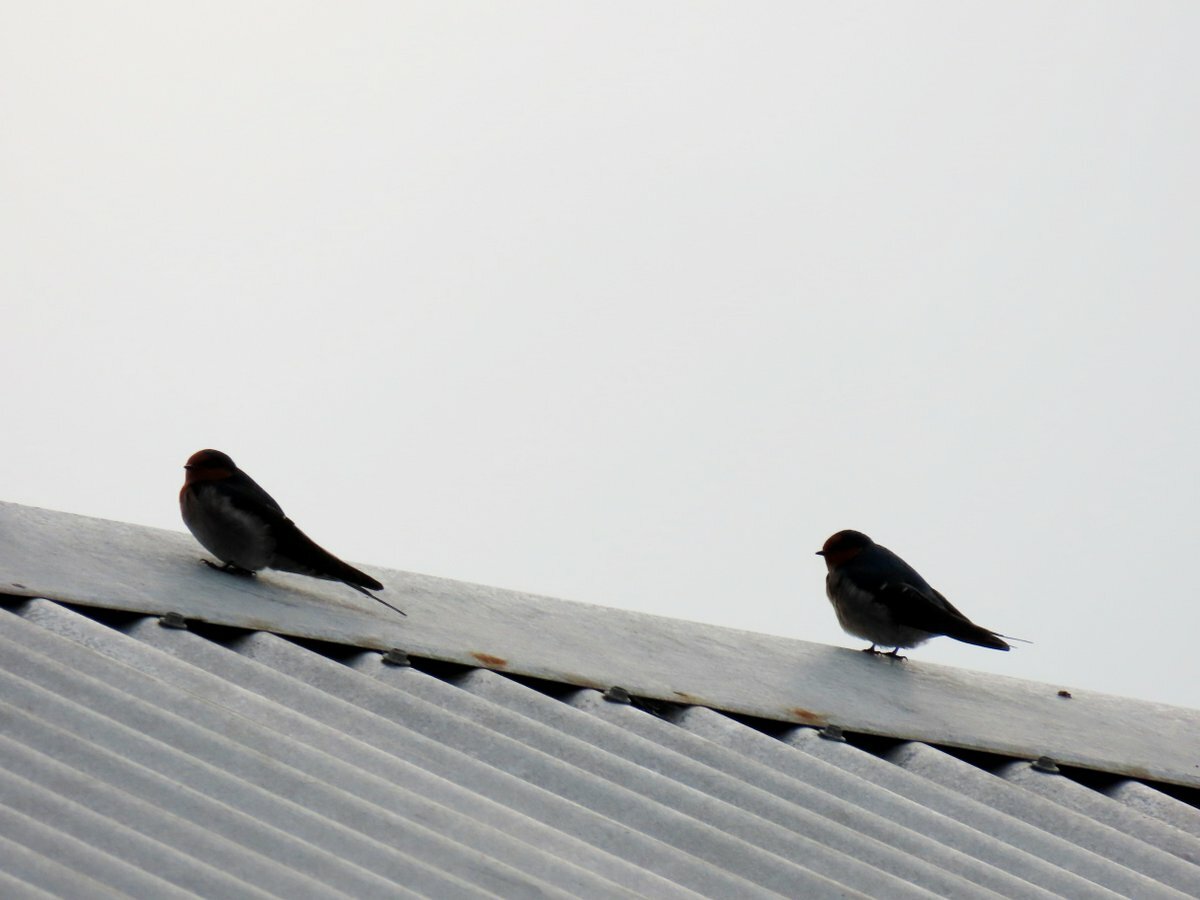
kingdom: Animalia
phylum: Chordata
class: Aves
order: Passeriformes
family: Hirundinidae
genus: Hirundo
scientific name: Hirundo neoxena
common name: Welcome swallow
